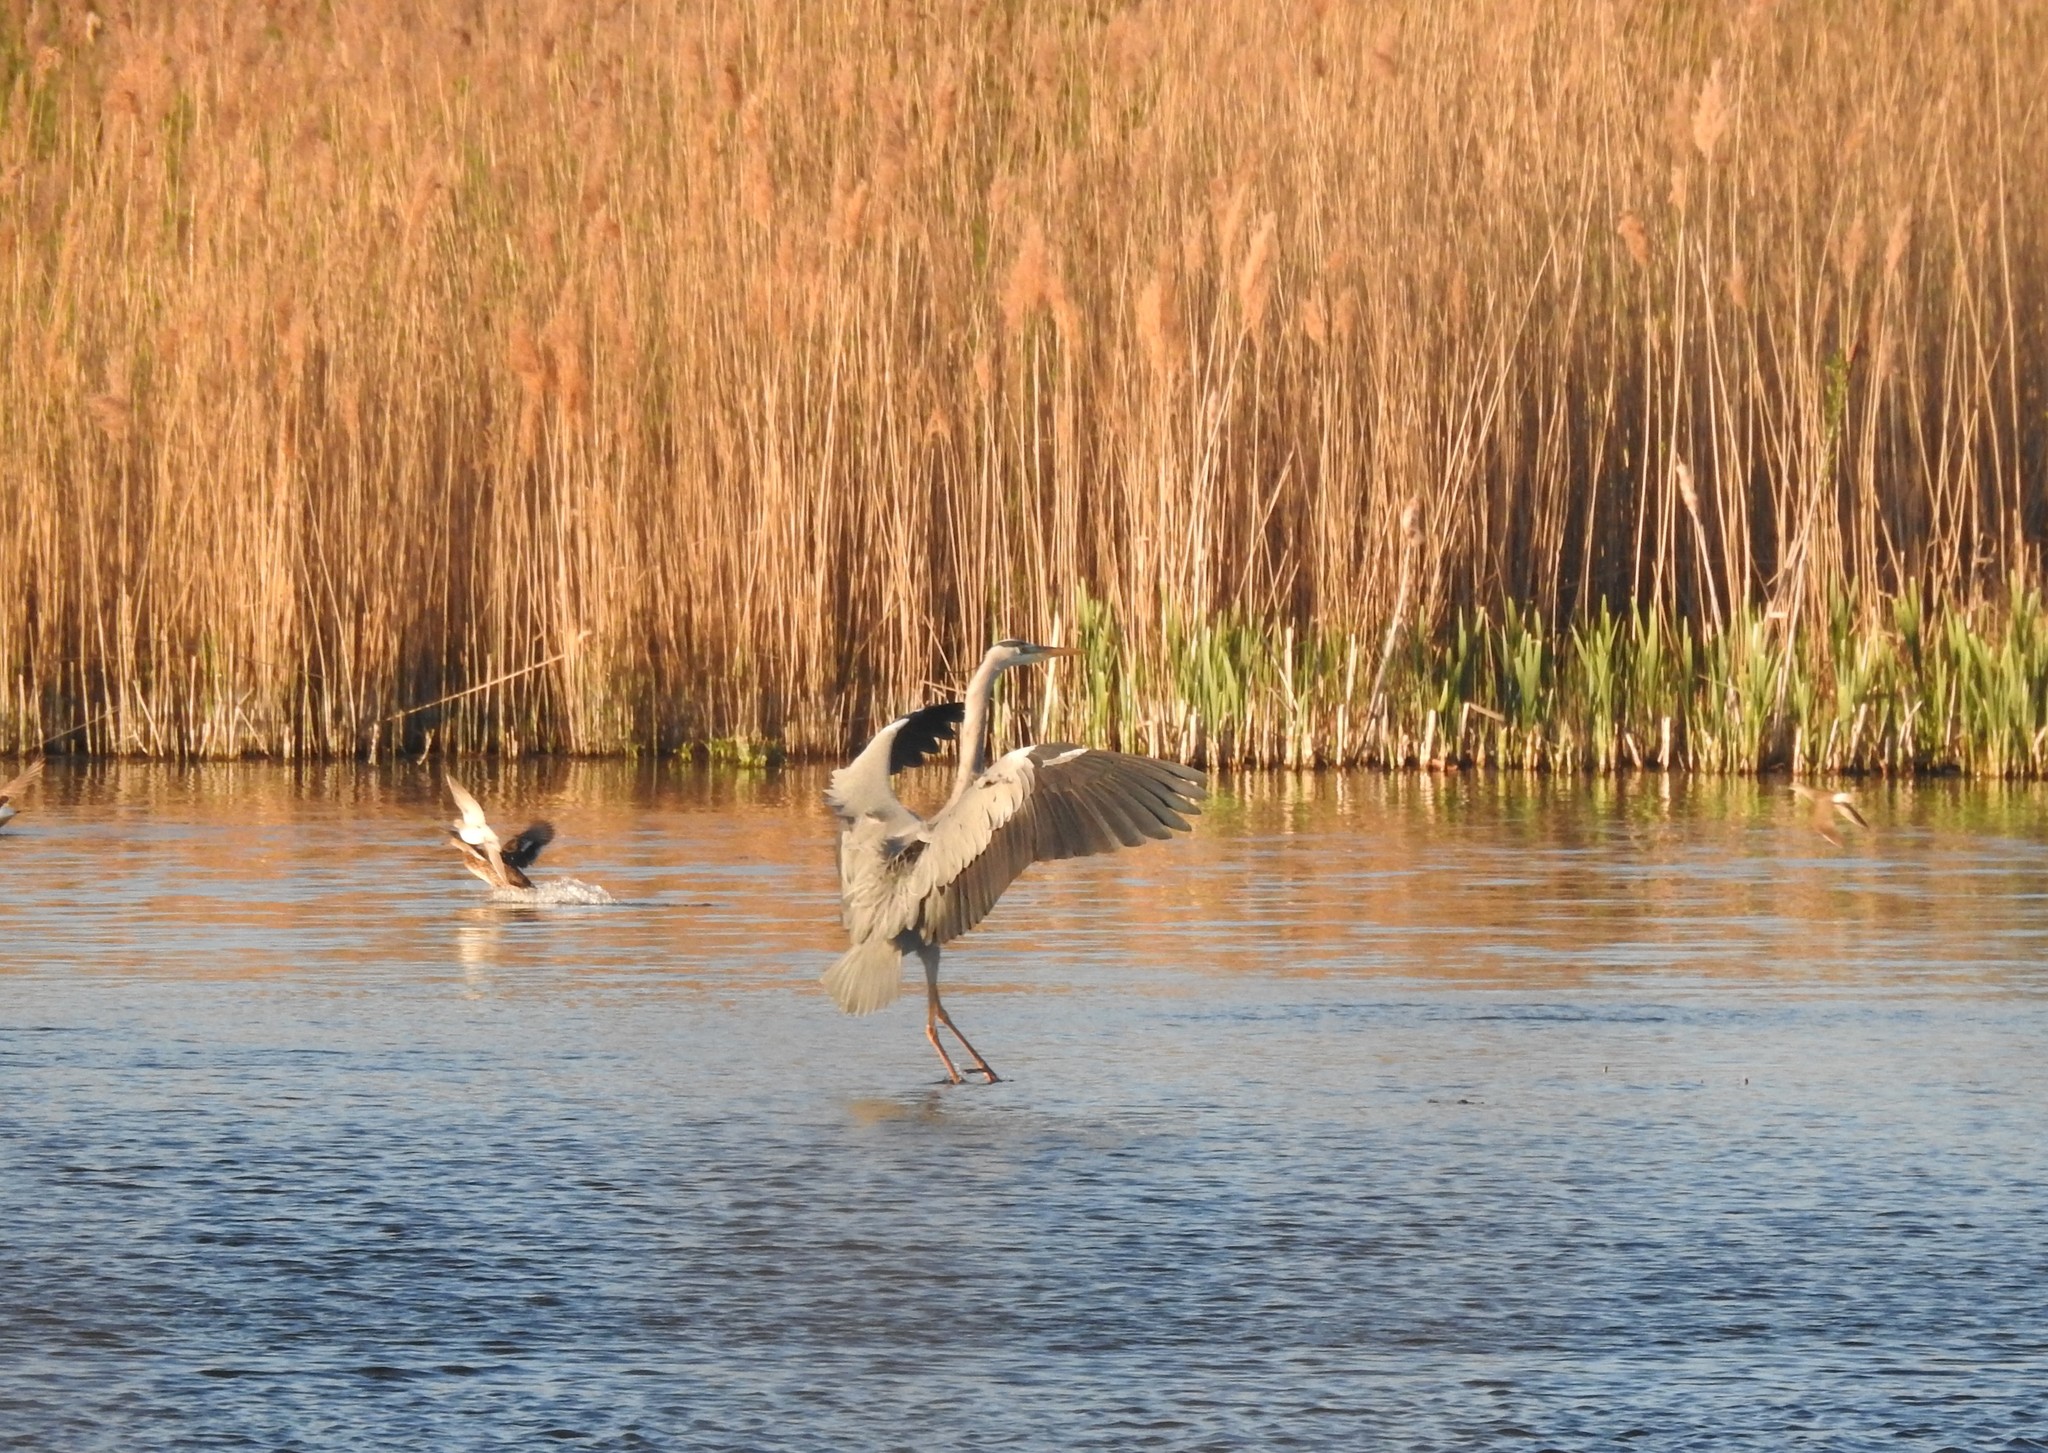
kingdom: Animalia
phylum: Chordata
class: Aves
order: Pelecaniformes
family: Ardeidae
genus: Ardea
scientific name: Ardea cinerea
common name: Grey heron
